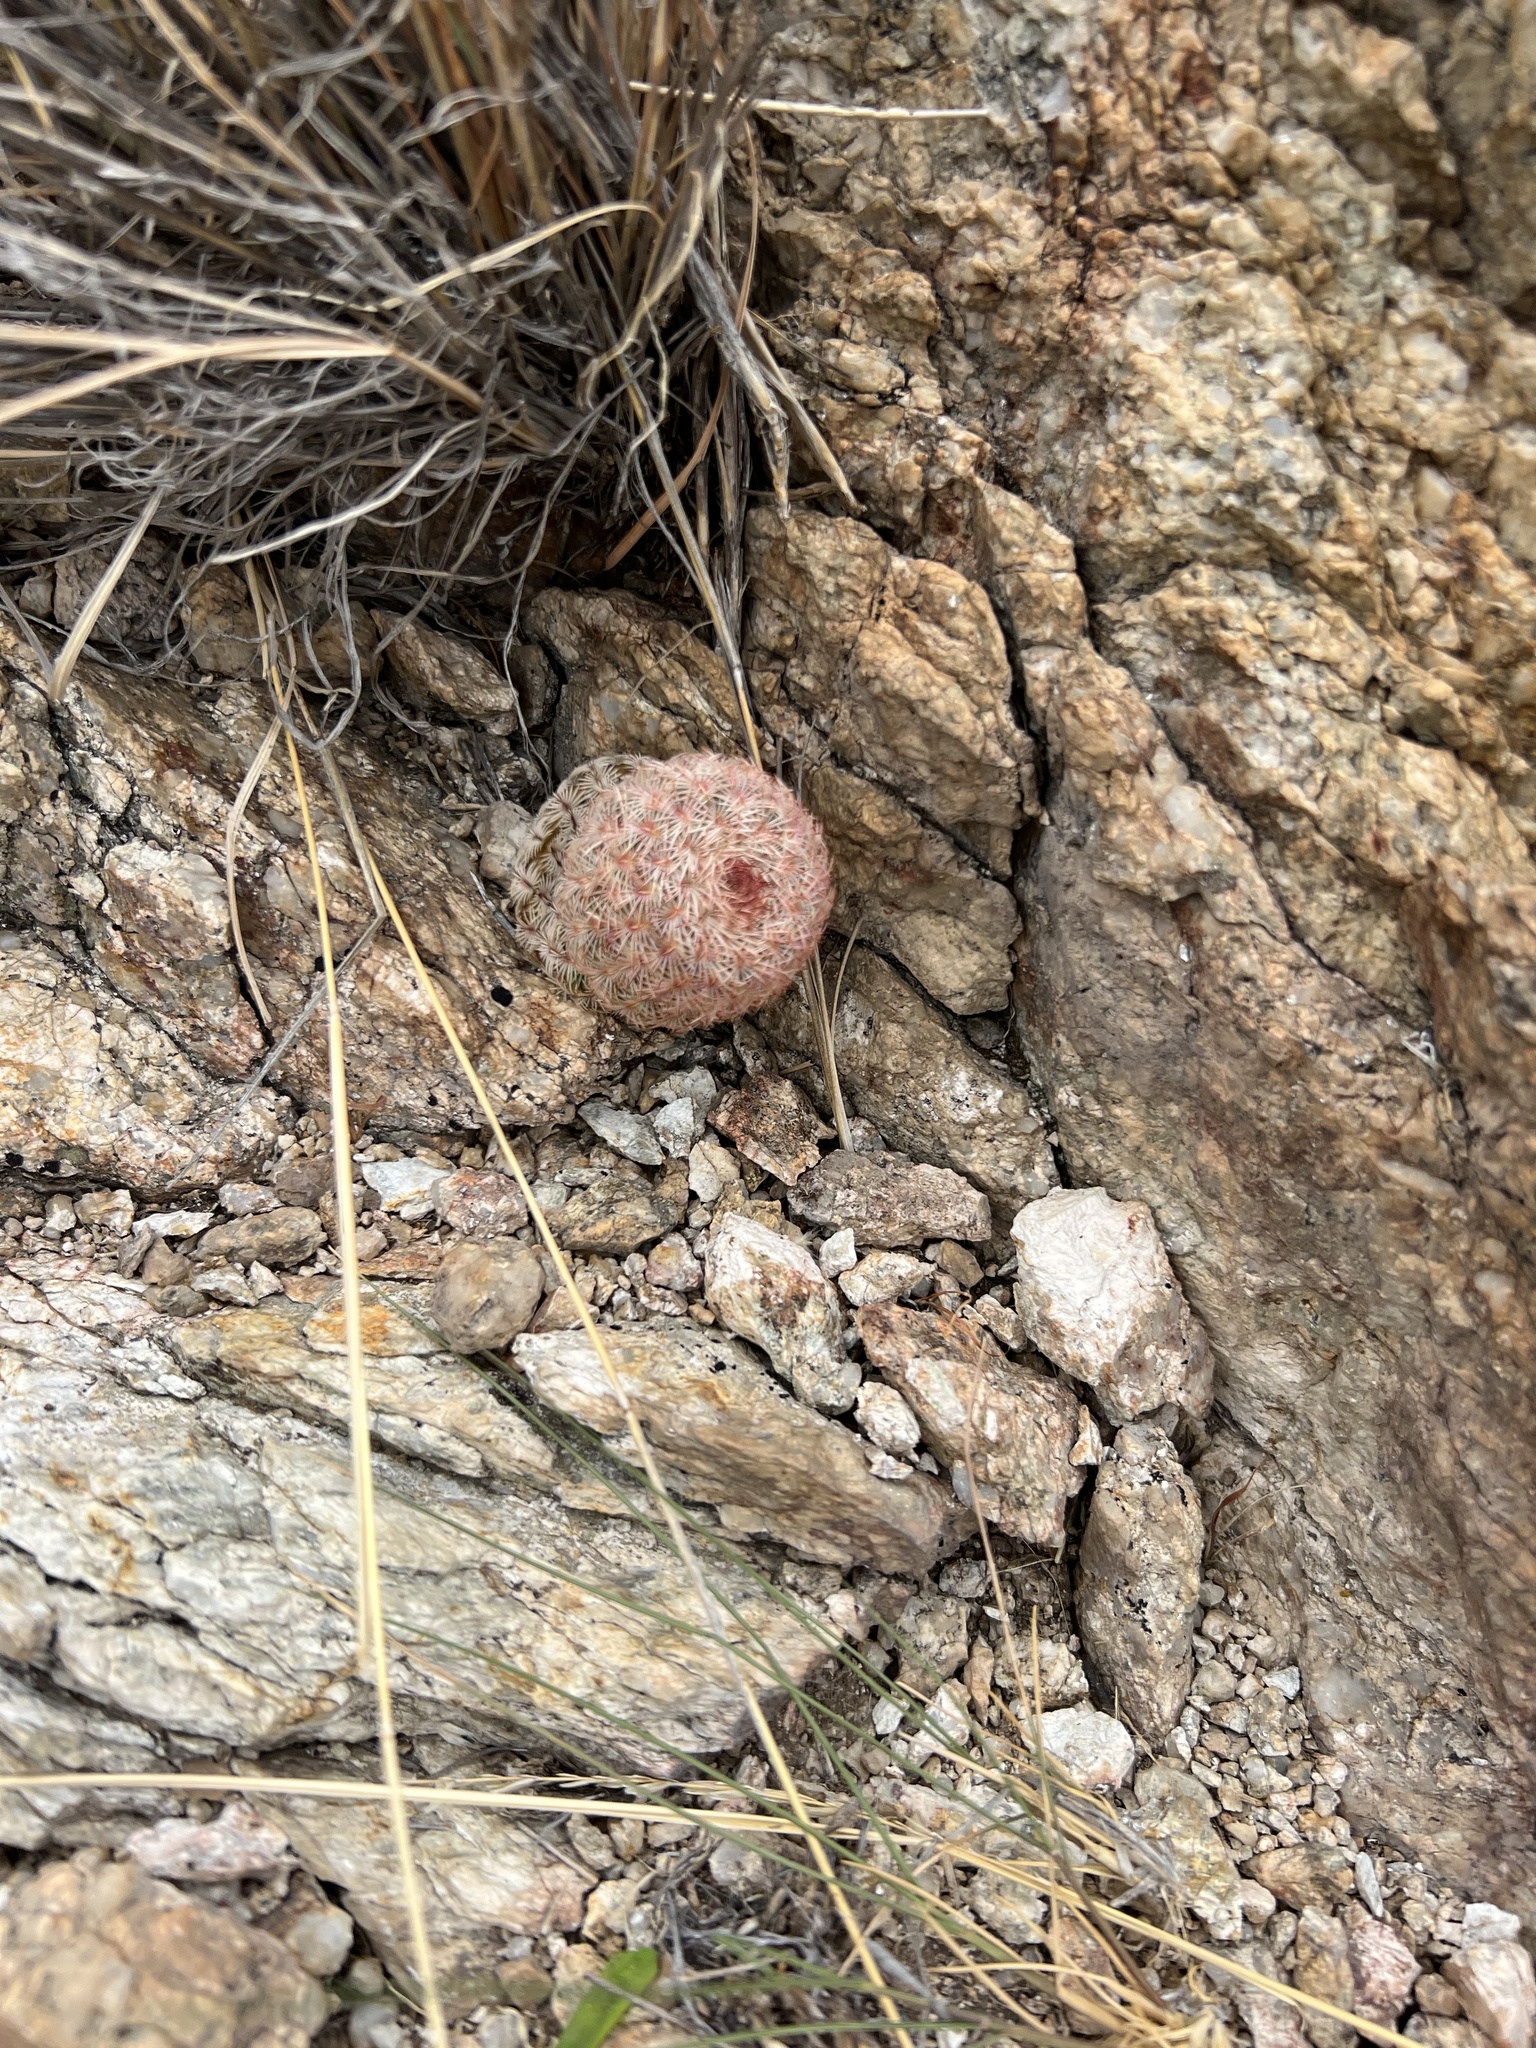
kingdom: Plantae
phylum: Tracheophyta
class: Magnoliopsida
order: Caryophyllales
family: Cactaceae
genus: Echinocereus
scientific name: Echinocereus rigidissimus
